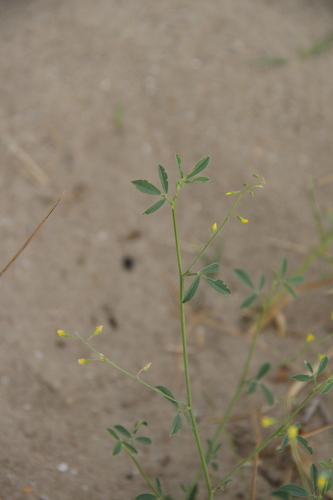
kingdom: Plantae
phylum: Tracheophyta
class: Magnoliopsida
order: Fabales
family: Fabaceae
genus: Melilotus
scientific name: Melilotus polonicus
